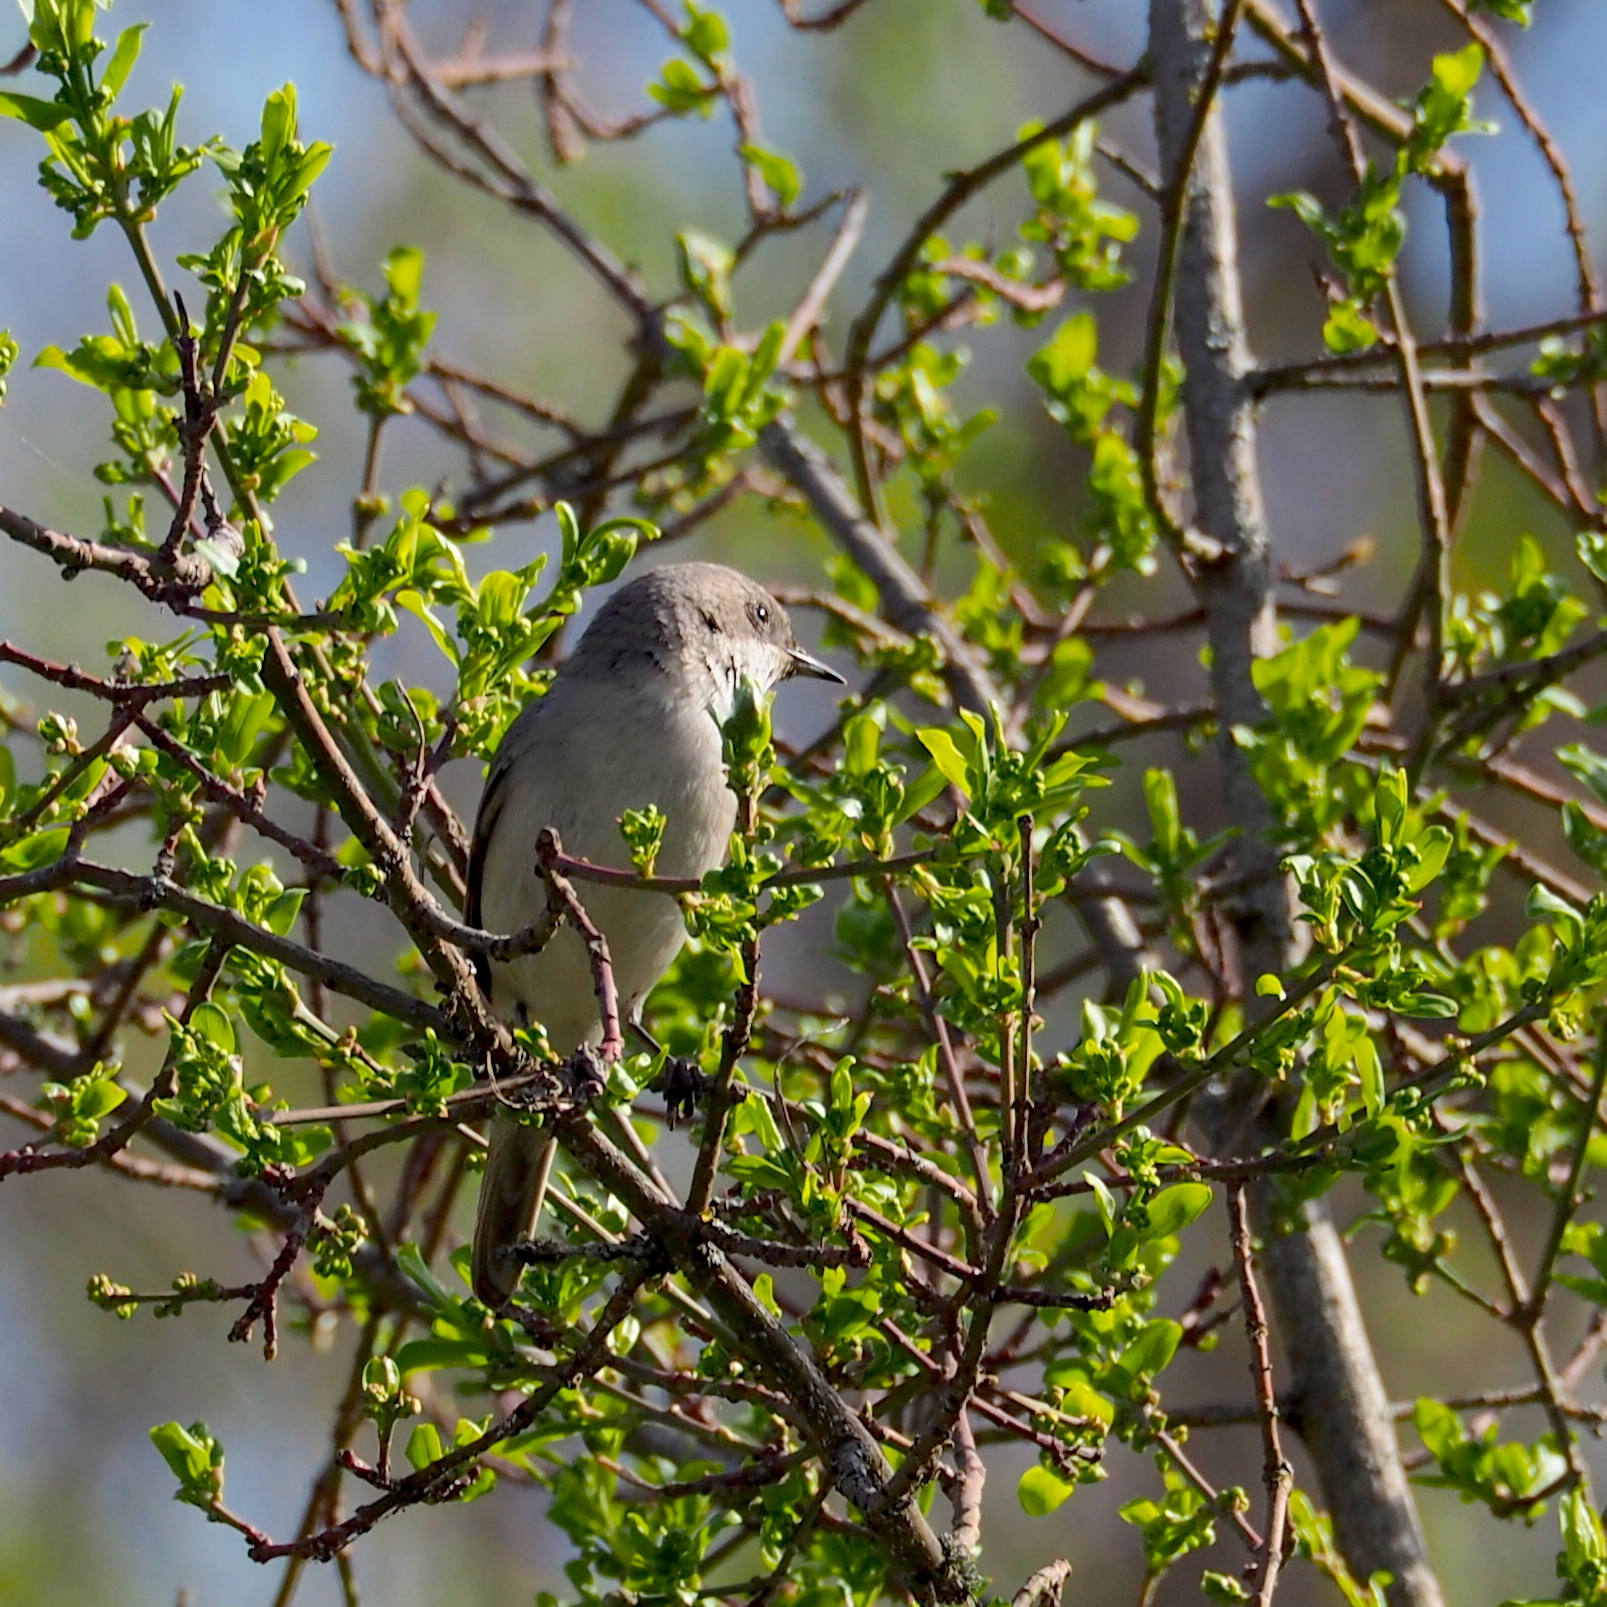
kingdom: Animalia
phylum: Chordata
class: Aves
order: Passeriformes
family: Sylviidae
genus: Sylvia
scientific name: Sylvia curruca
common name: Lesser whitethroat
